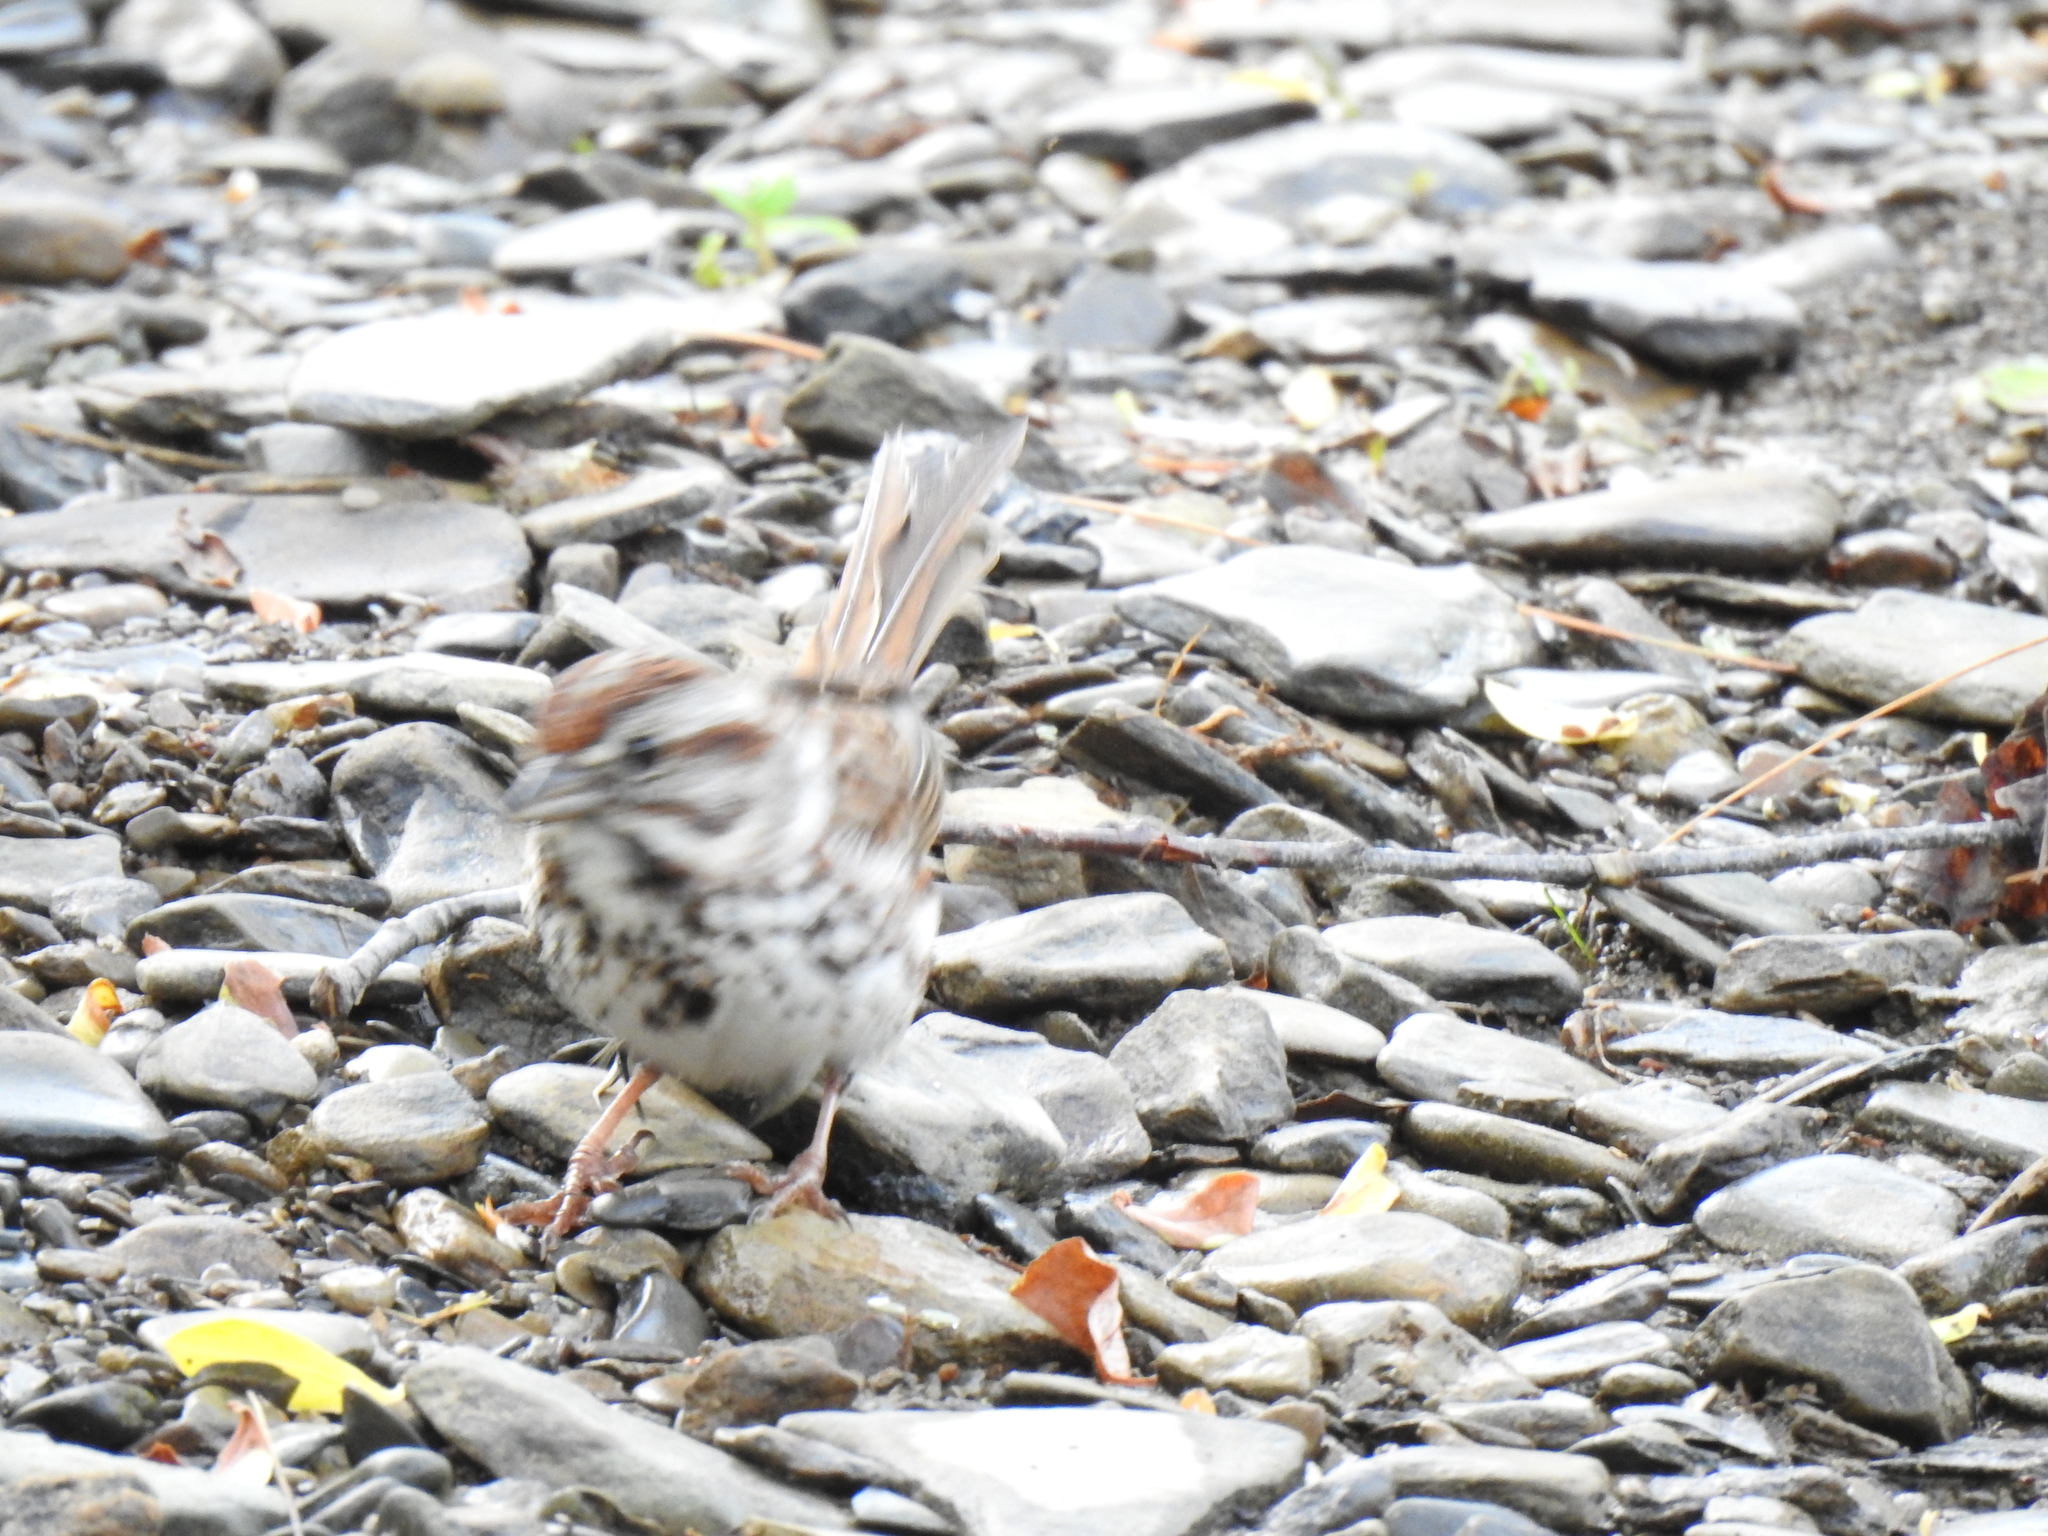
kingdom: Animalia
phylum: Chordata
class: Aves
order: Passeriformes
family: Passerellidae
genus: Melospiza
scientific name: Melospiza melodia
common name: Song sparrow
